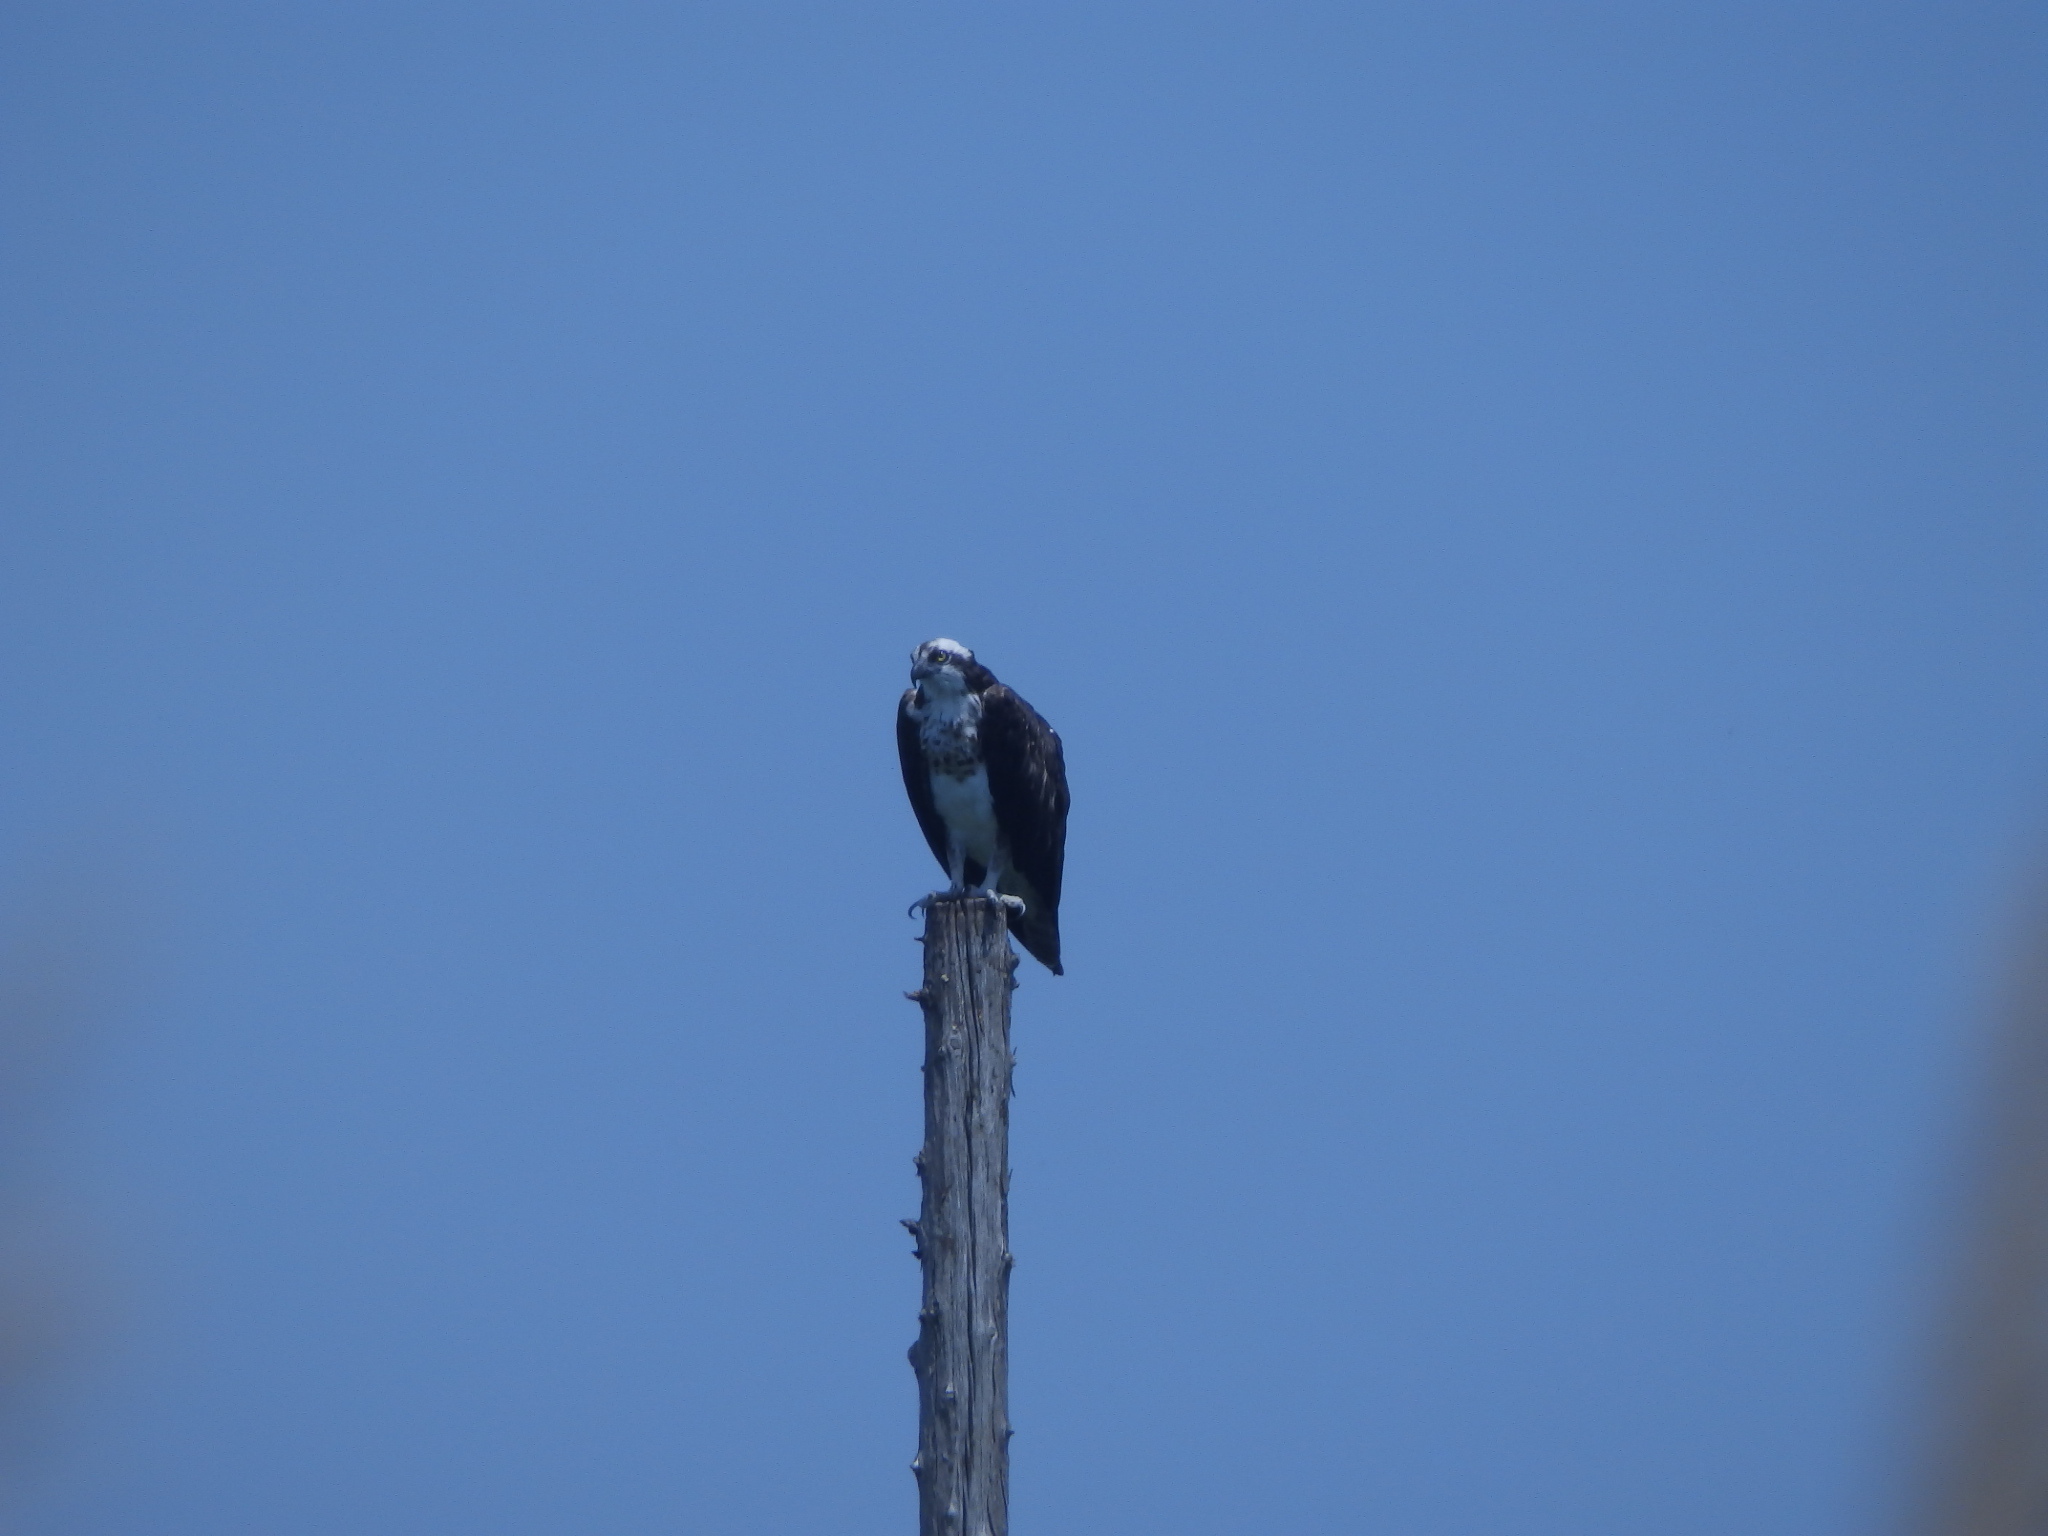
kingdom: Animalia
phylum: Chordata
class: Aves
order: Accipitriformes
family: Pandionidae
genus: Pandion
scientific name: Pandion haliaetus
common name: Osprey
